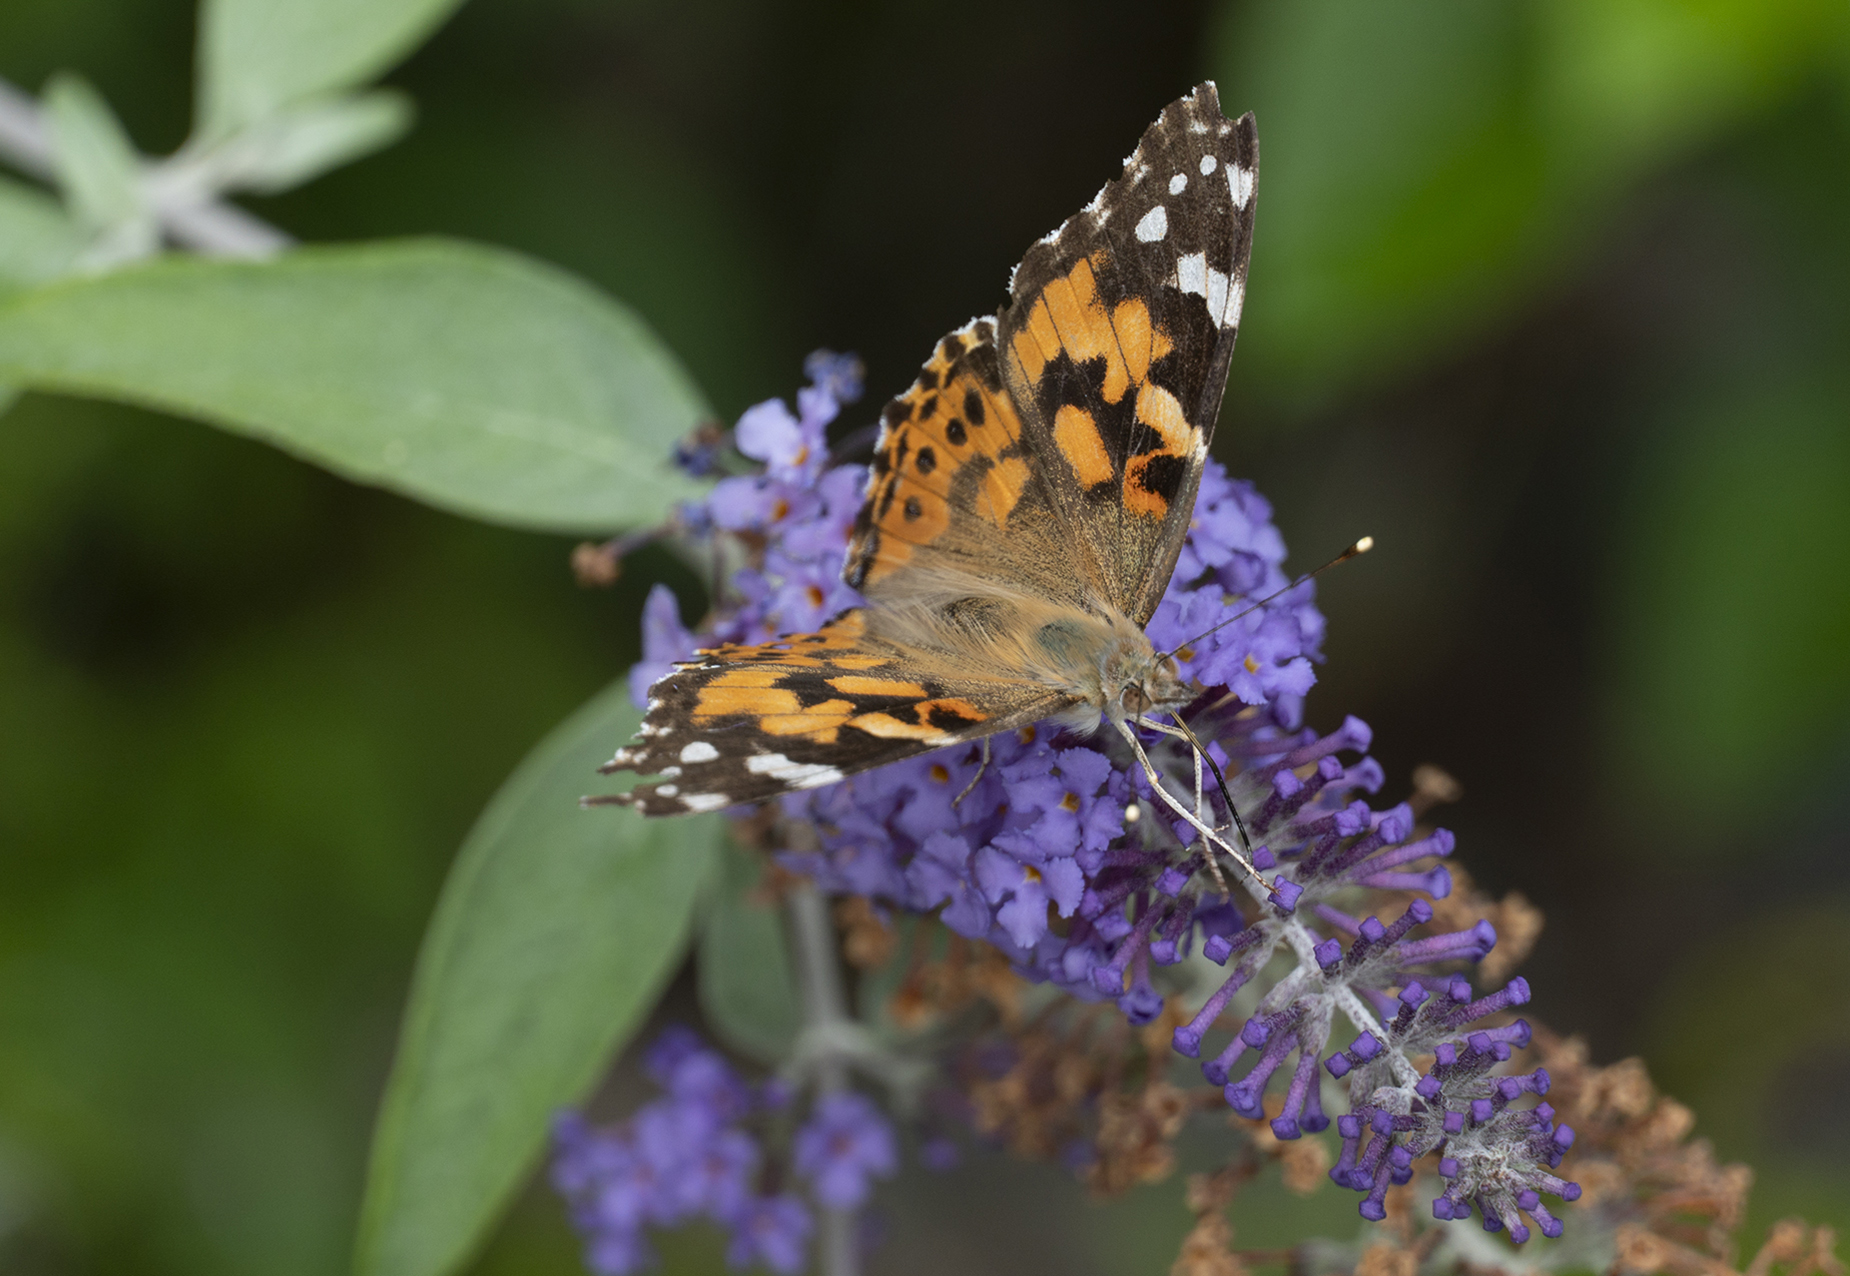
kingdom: Animalia
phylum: Arthropoda
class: Insecta
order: Lepidoptera
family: Nymphalidae
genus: Vanessa
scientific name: Vanessa cardui
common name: Painted lady
